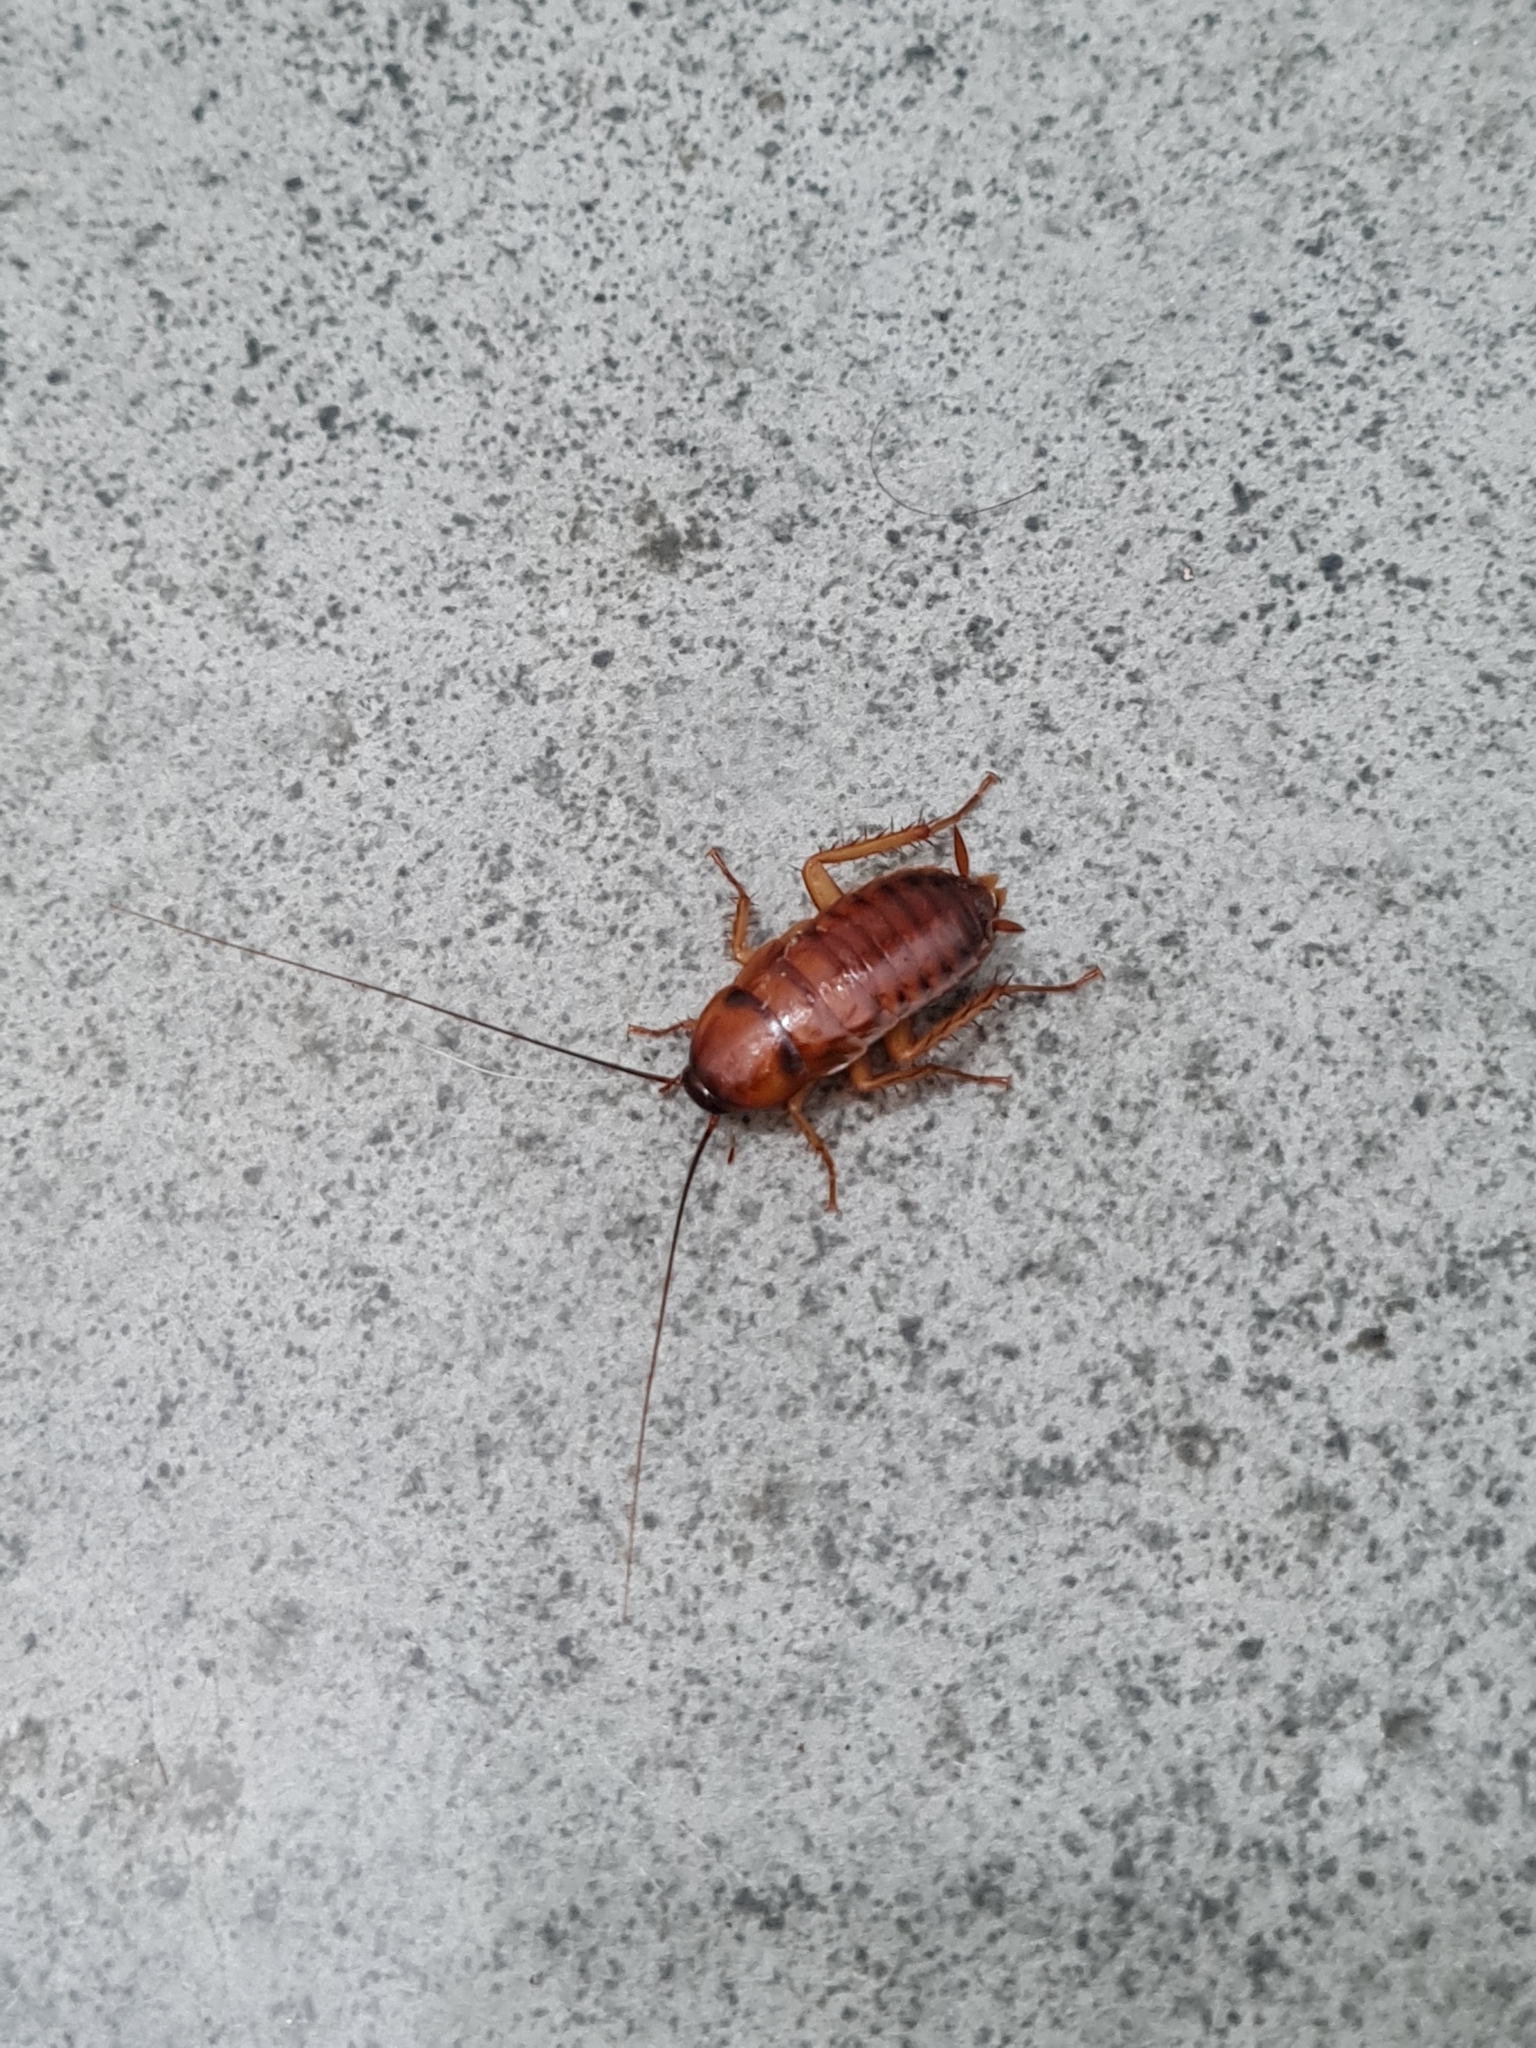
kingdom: Animalia
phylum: Arthropoda
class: Insecta
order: Blattodea
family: Blattidae
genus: Periplaneta
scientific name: Periplaneta americana
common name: American cockroach
